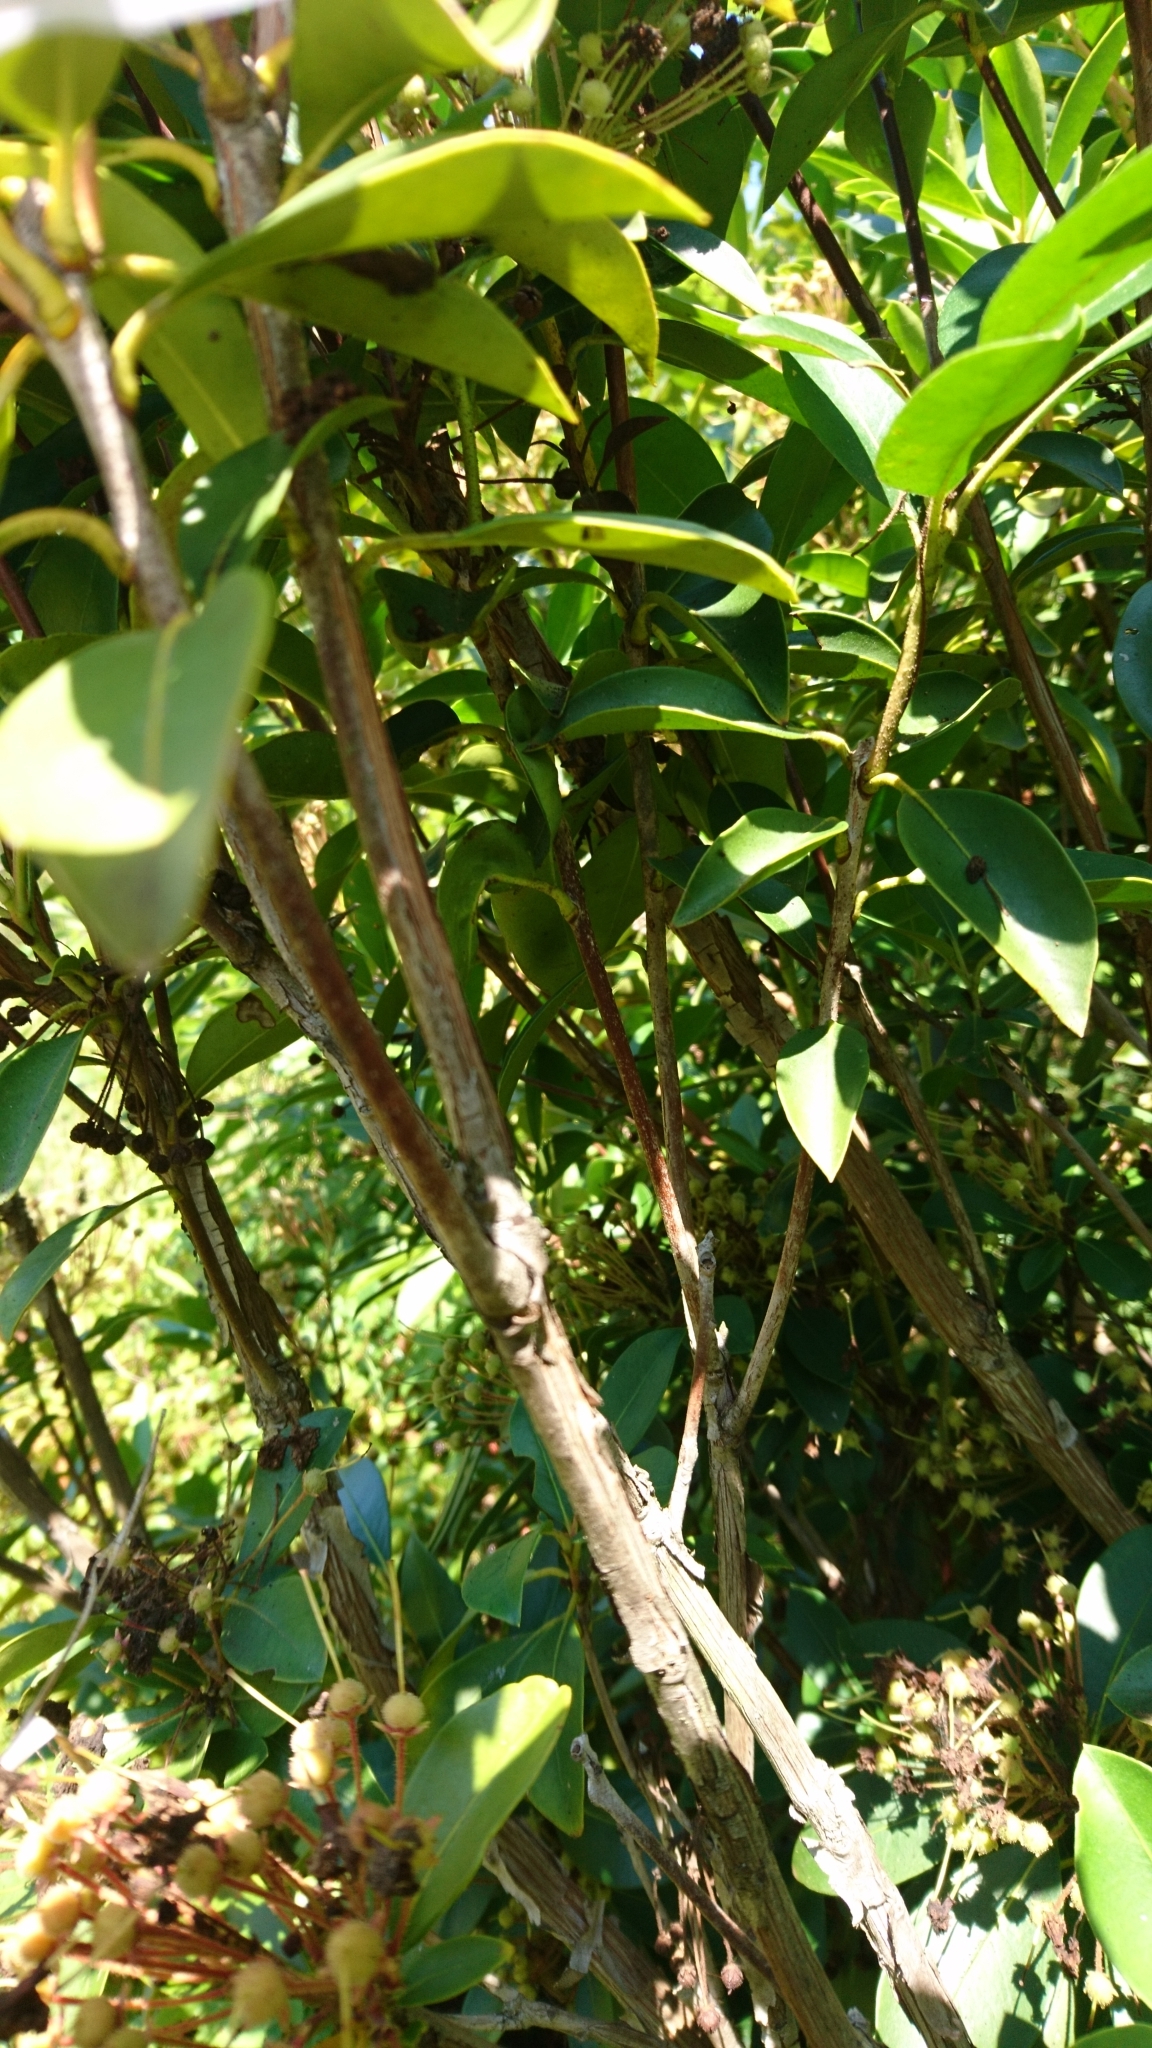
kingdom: Plantae
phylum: Tracheophyta
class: Magnoliopsida
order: Ericales
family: Ericaceae
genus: Kalmia
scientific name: Kalmia latifolia
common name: Mountain-laurel
